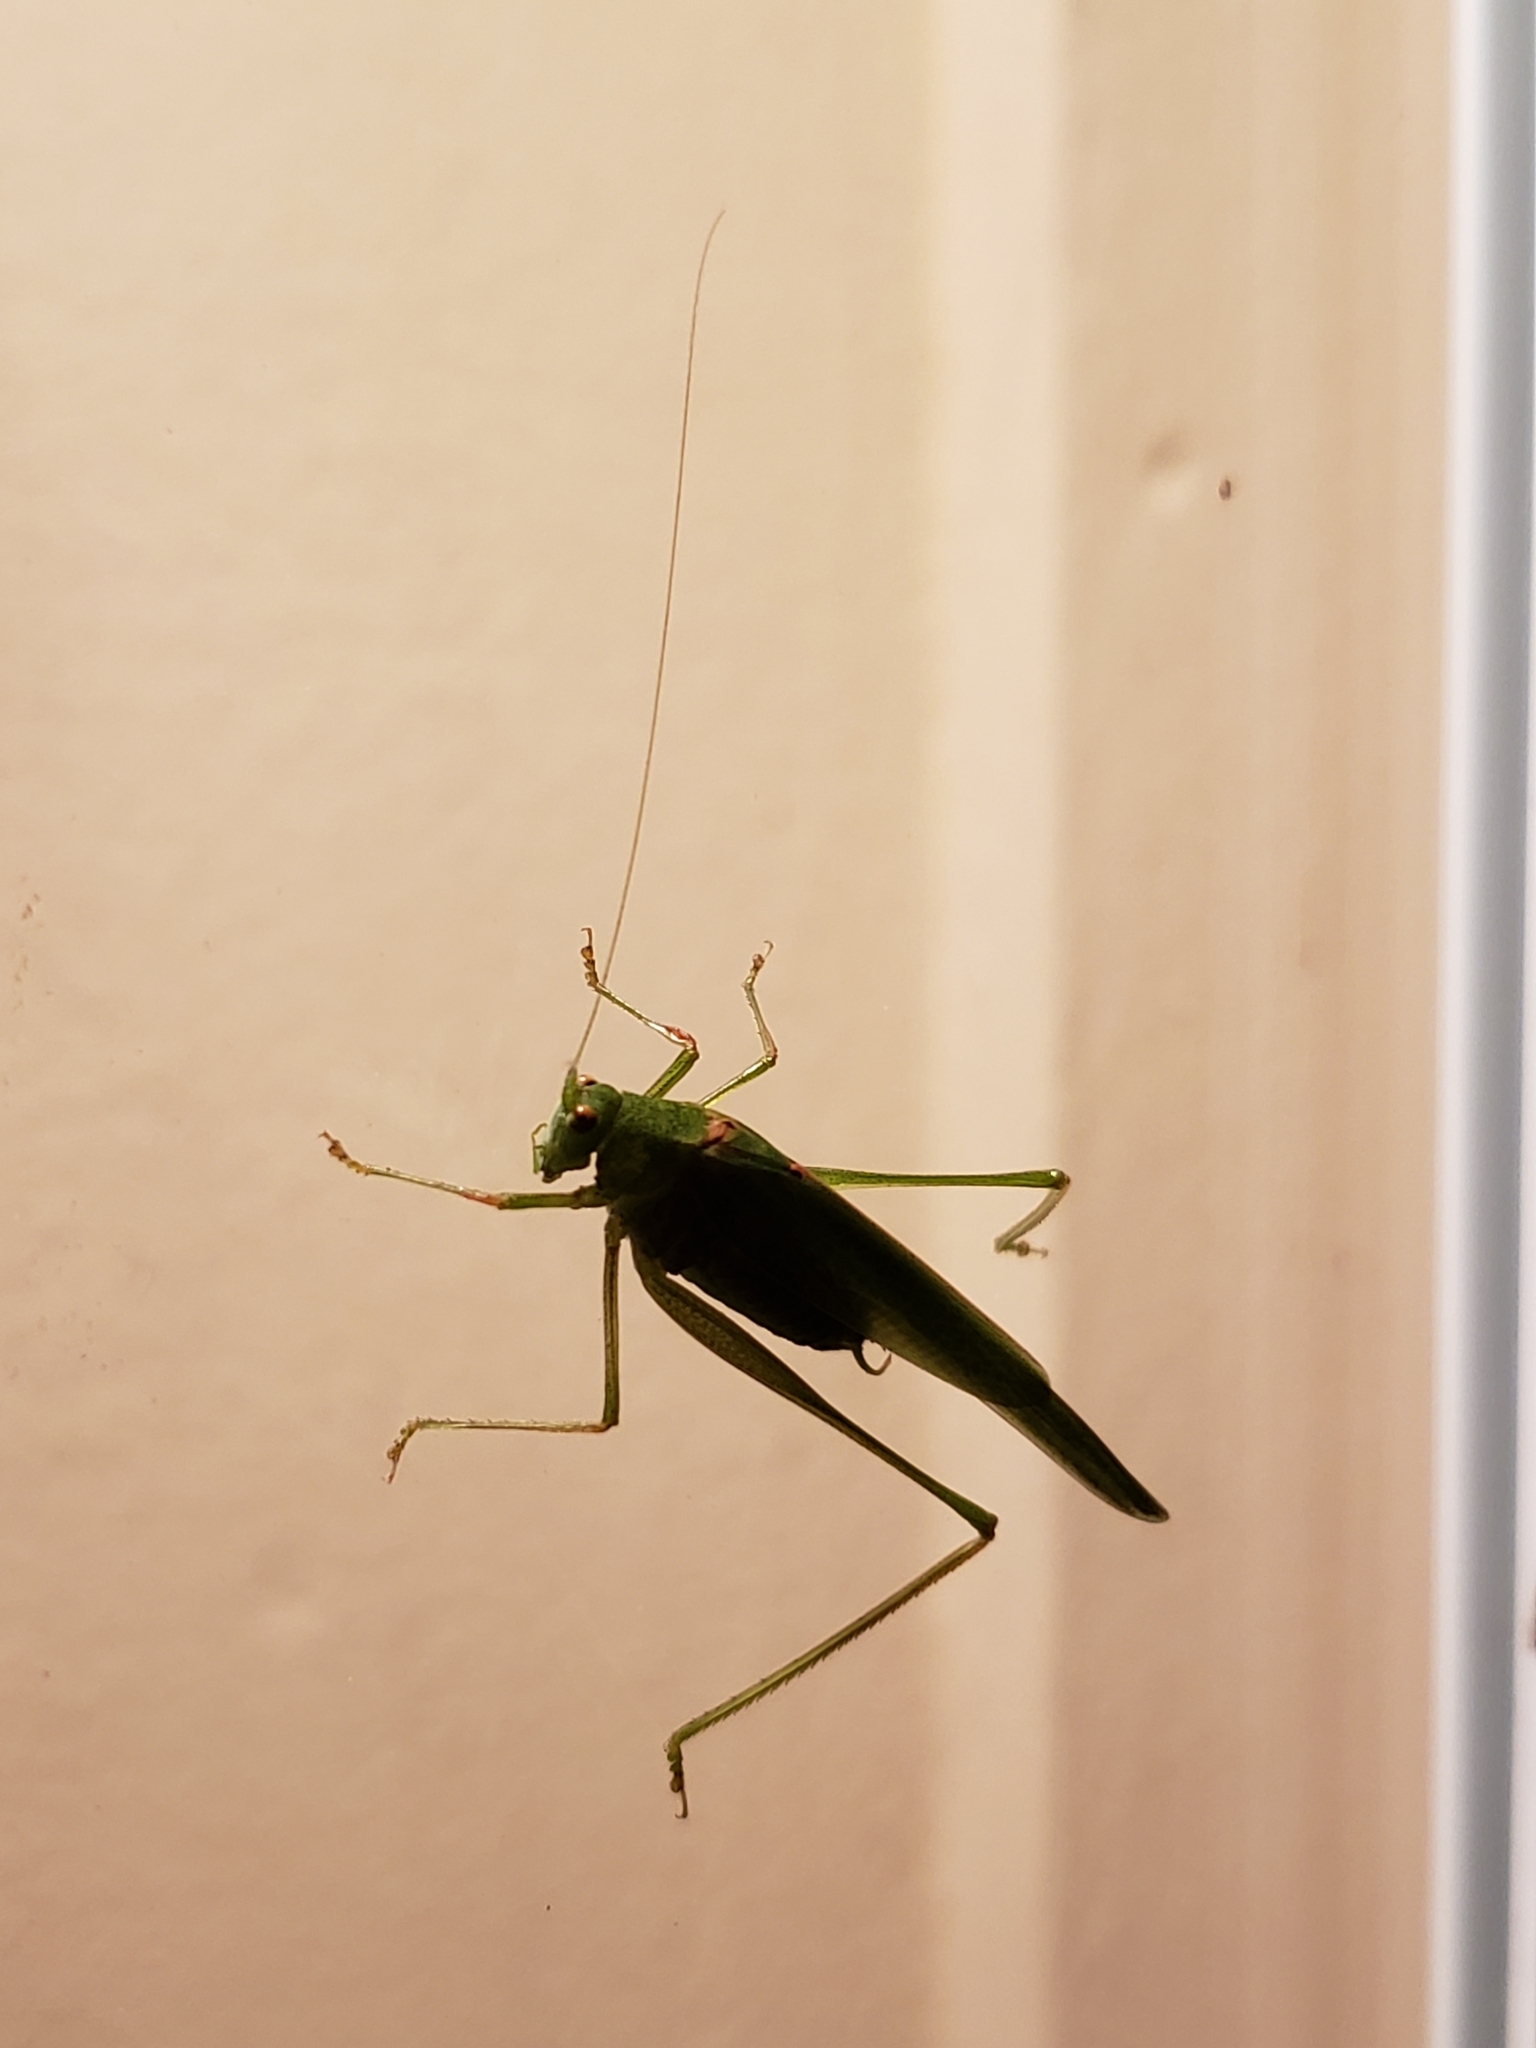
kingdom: Animalia
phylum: Arthropoda
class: Insecta
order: Orthoptera
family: Tettigoniidae
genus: Phaneroptera
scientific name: Phaneroptera nana
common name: Southern sickle bush-cricket
